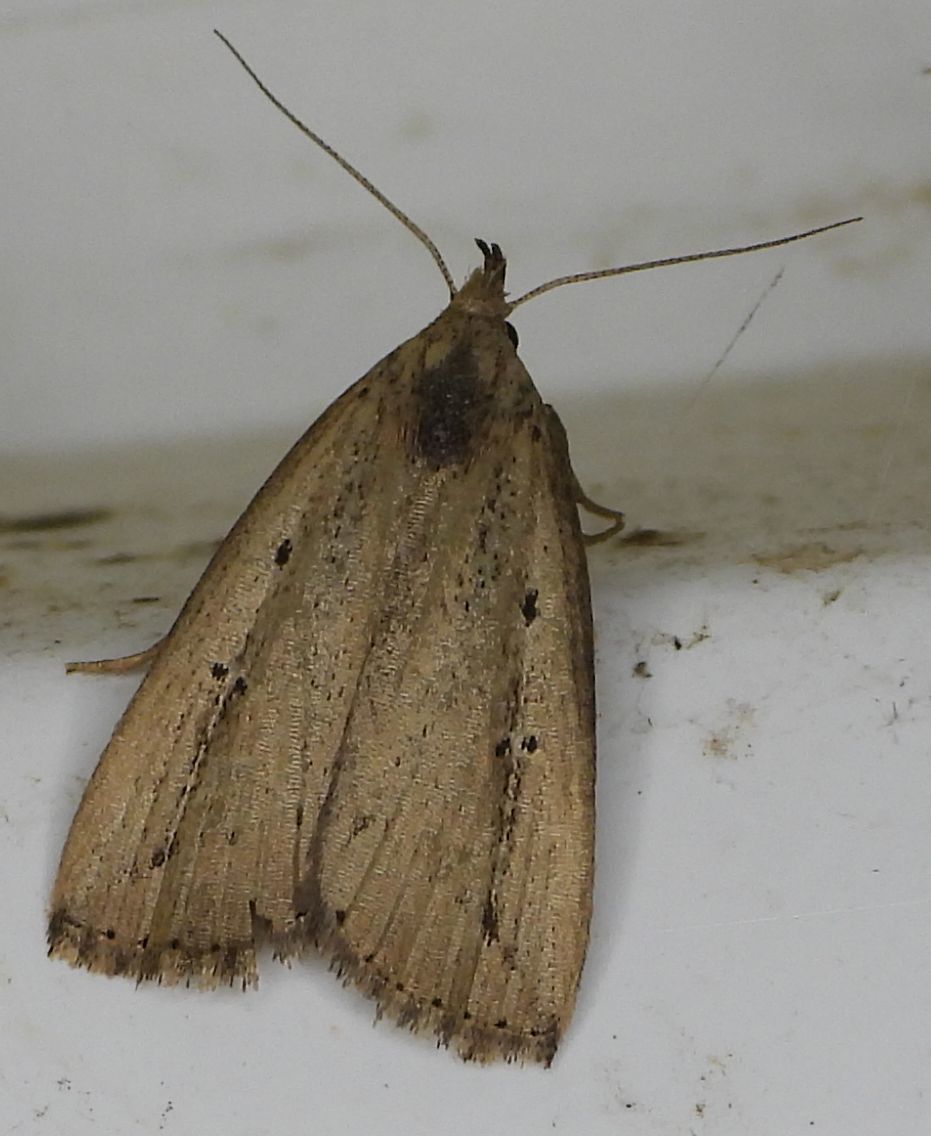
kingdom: Animalia
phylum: Arthropoda
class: Insecta
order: Lepidoptera
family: Erebidae
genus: Macrochilo
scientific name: Macrochilo orciferalis
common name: Bronzy owlet
